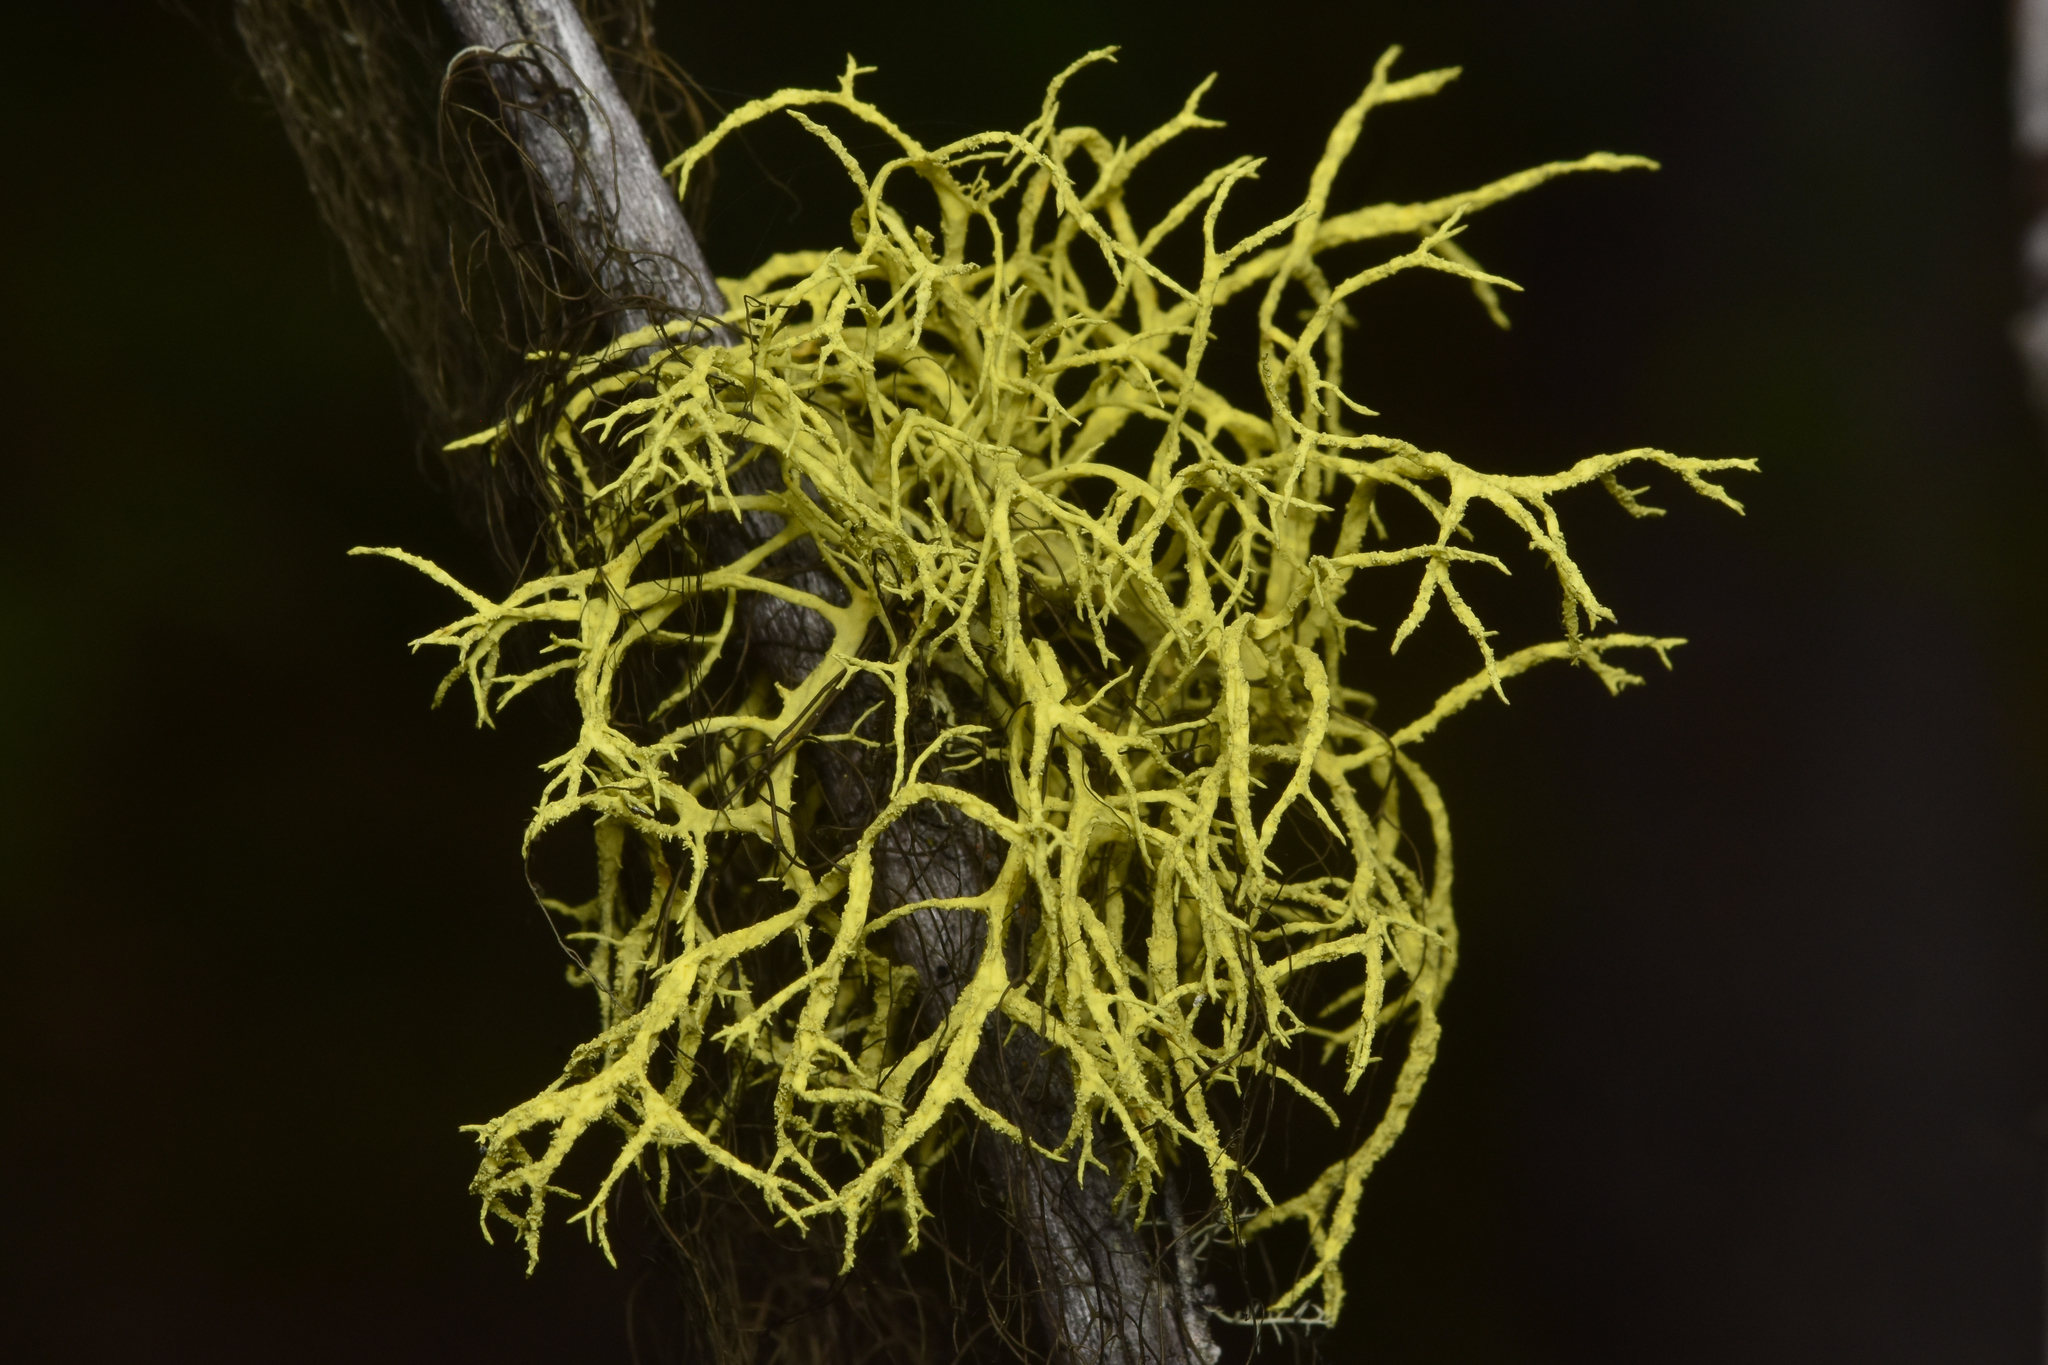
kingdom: Fungi
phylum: Ascomycota
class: Lecanoromycetes
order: Lecanorales
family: Parmeliaceae
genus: Letharia
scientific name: Letharia vulpina
